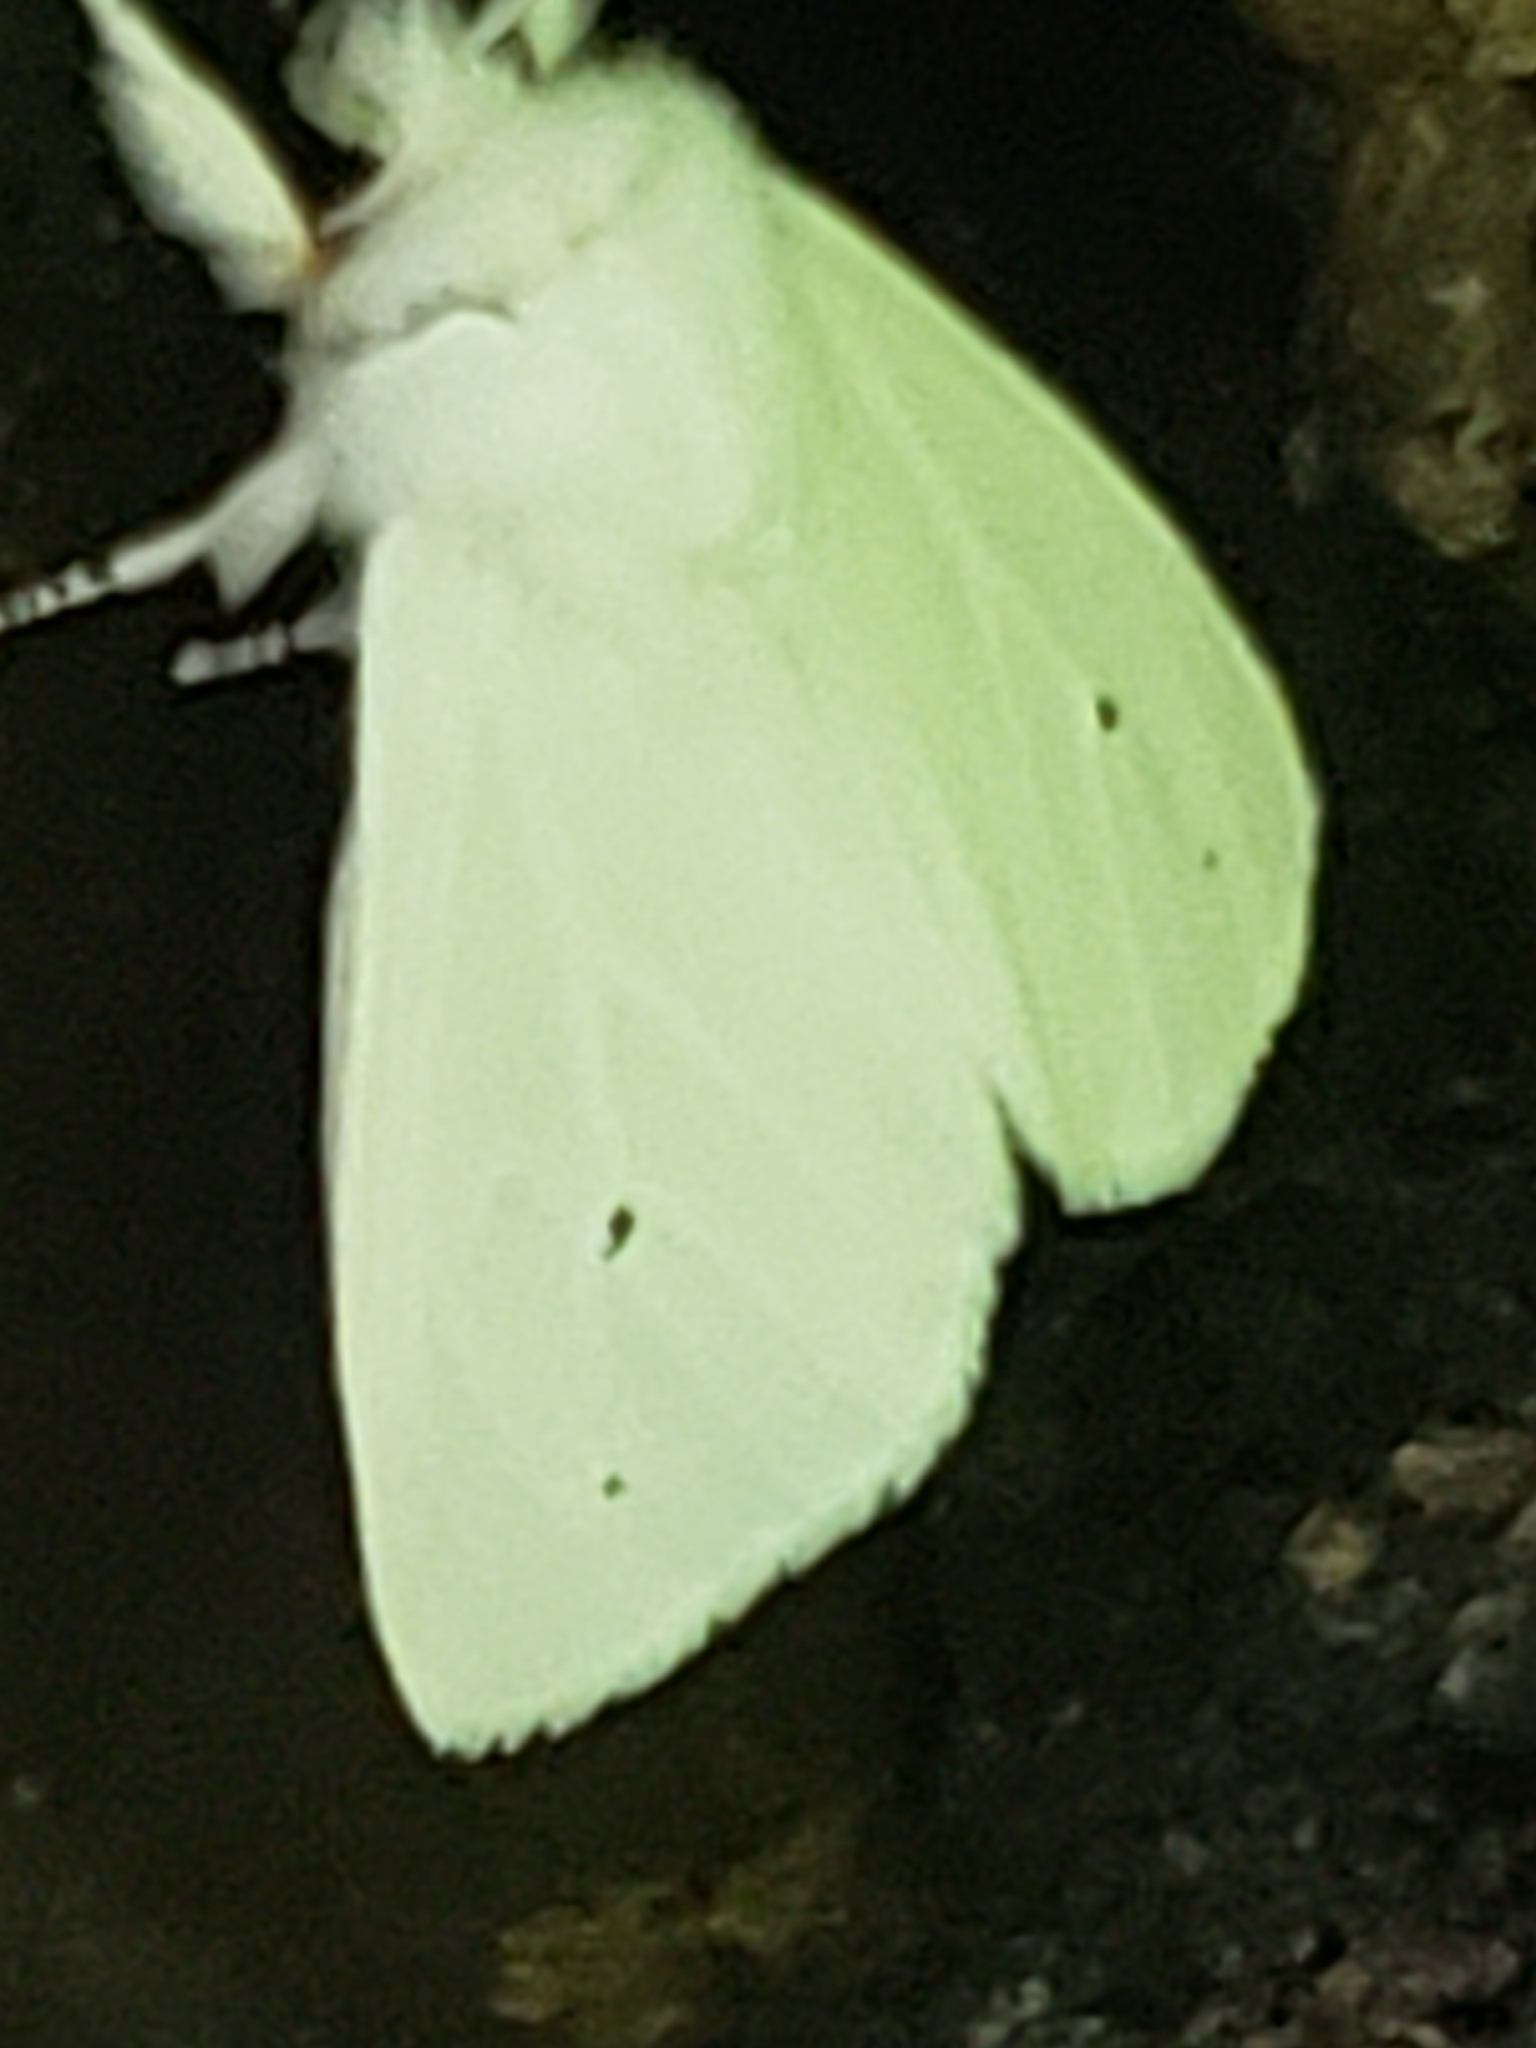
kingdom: Animalia
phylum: Arthropoda
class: Insecta
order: Lepidoptera
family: Erebidae
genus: Spilosoma
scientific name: Spilosoma virginica
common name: Virginia tiger moth
